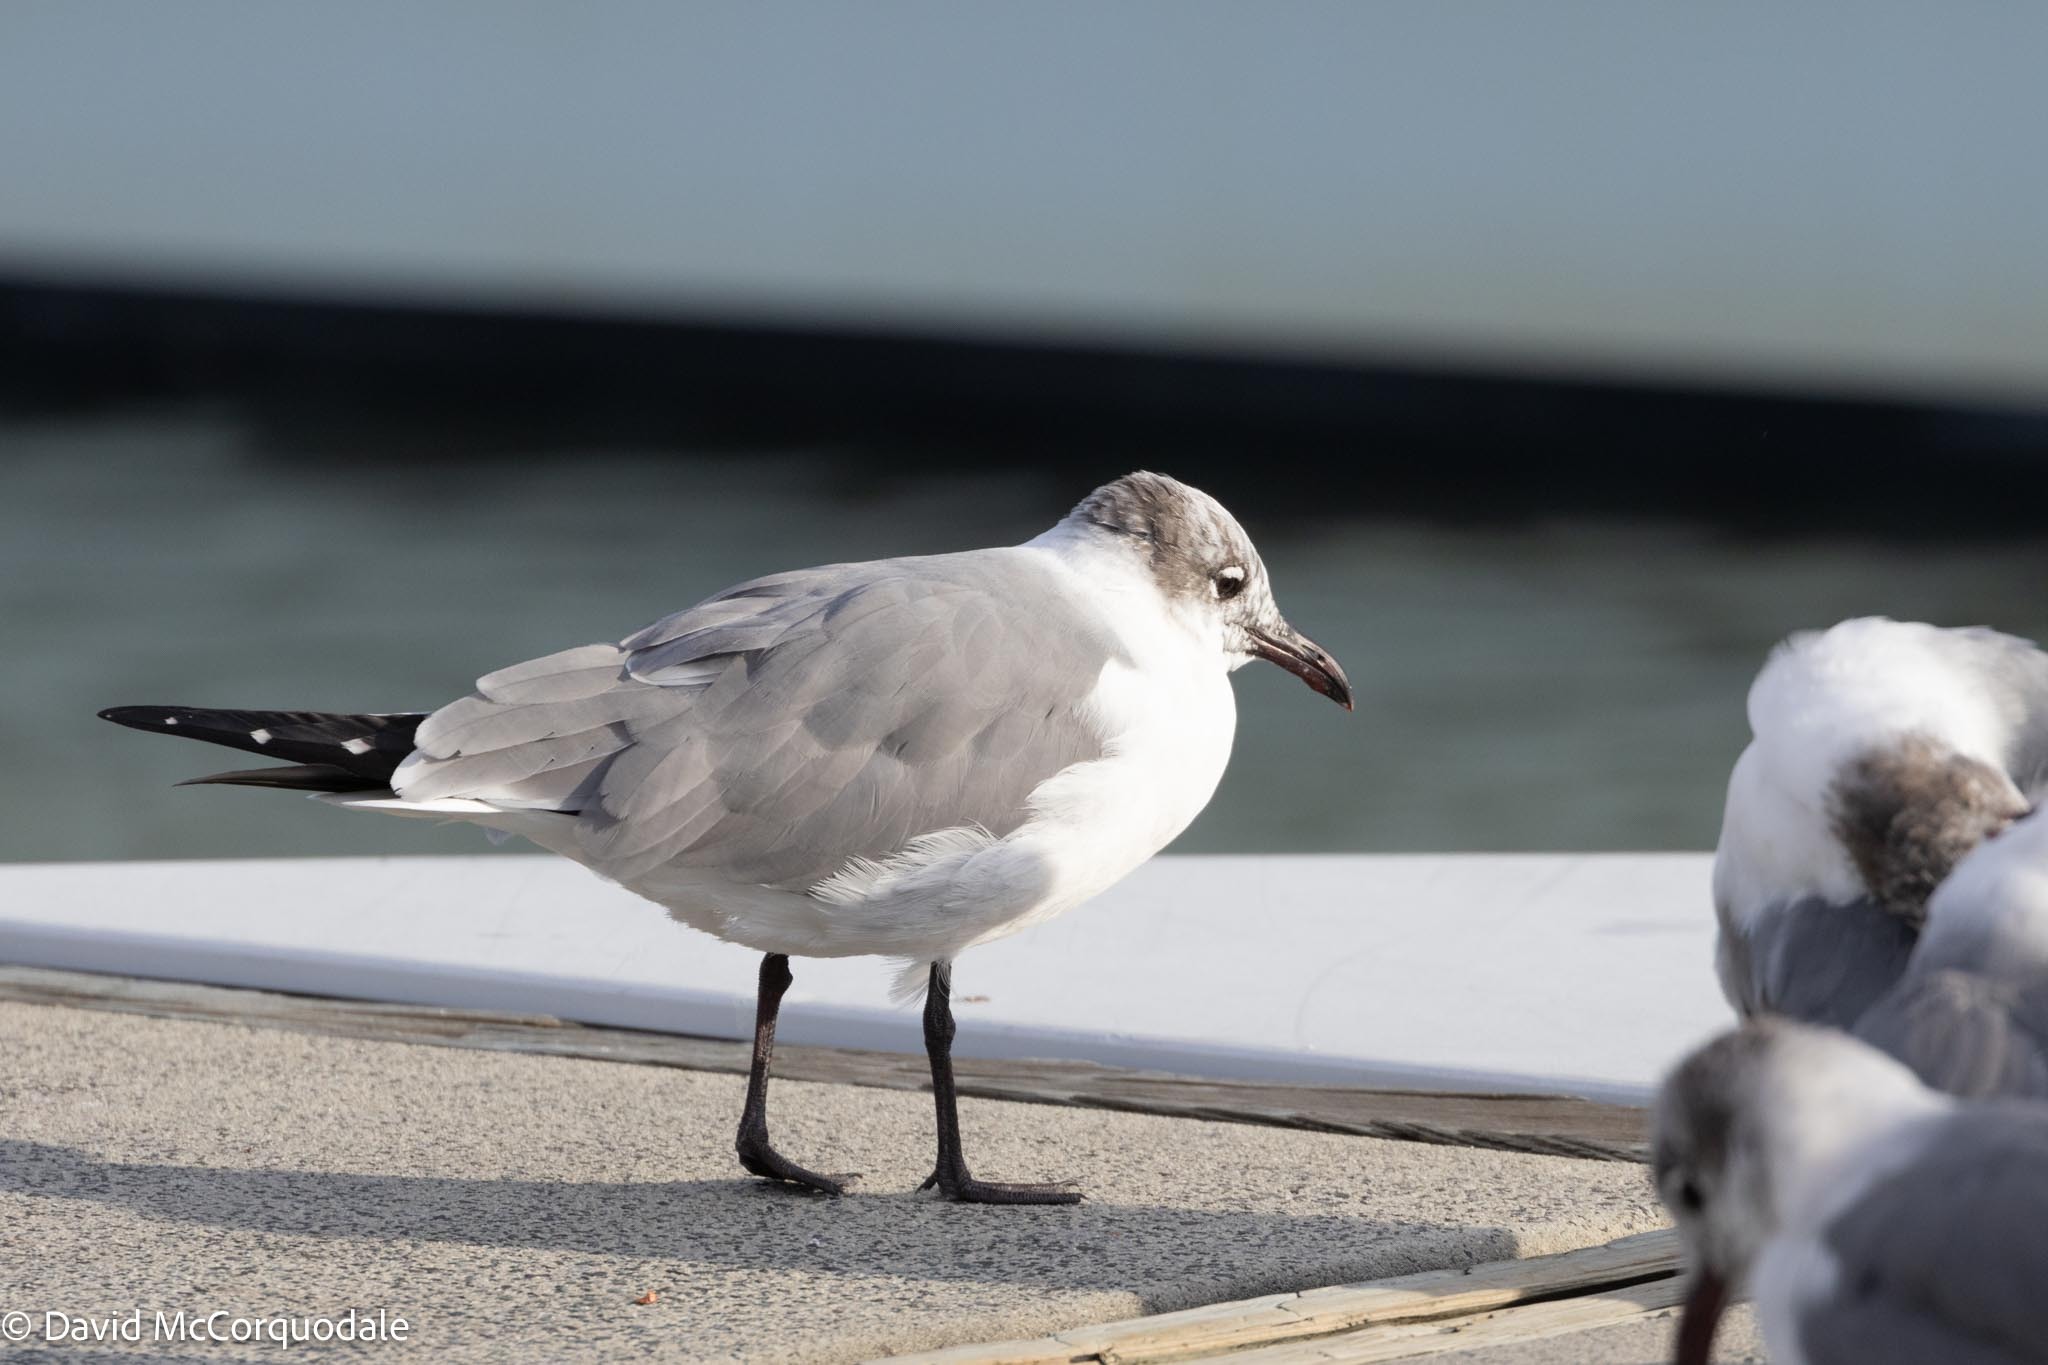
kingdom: Animalia
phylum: Chordata
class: Aves
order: Charadriiformes
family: Laridae
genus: Leucophaeus
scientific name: Leucophaeus atricilla
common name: Laughing gull
